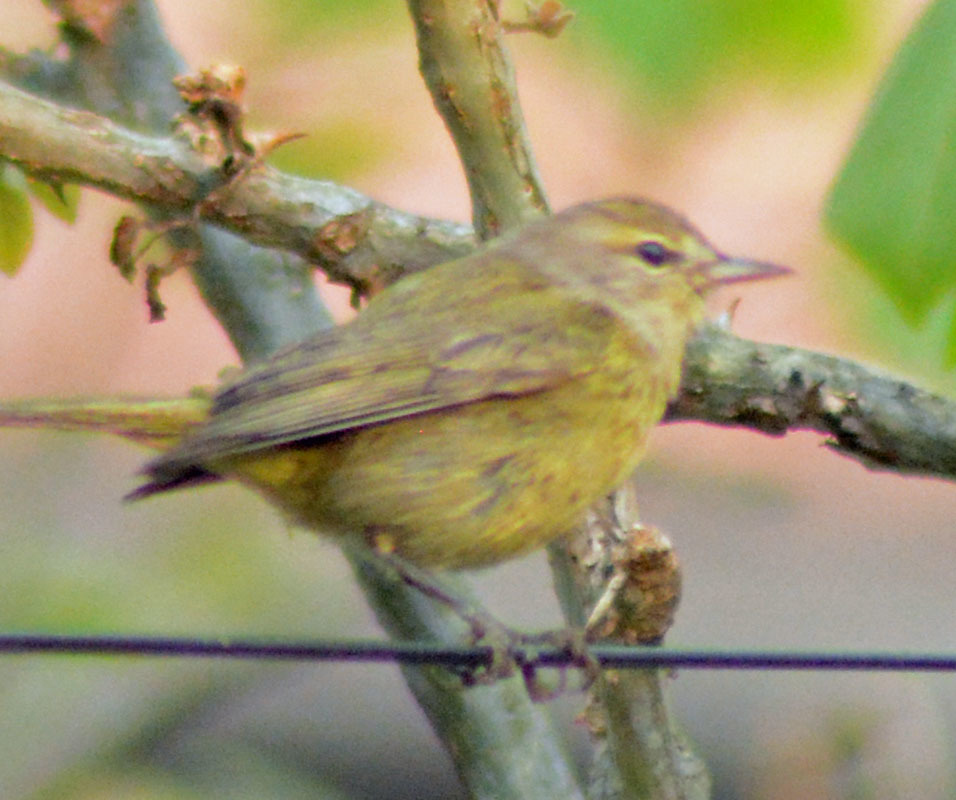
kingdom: Animalia
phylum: Chordata
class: Aves
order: Passeriformes
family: Parulidae
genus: Leiothlypis
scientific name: Leiothlypis celata
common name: Orange-crowned warbler
